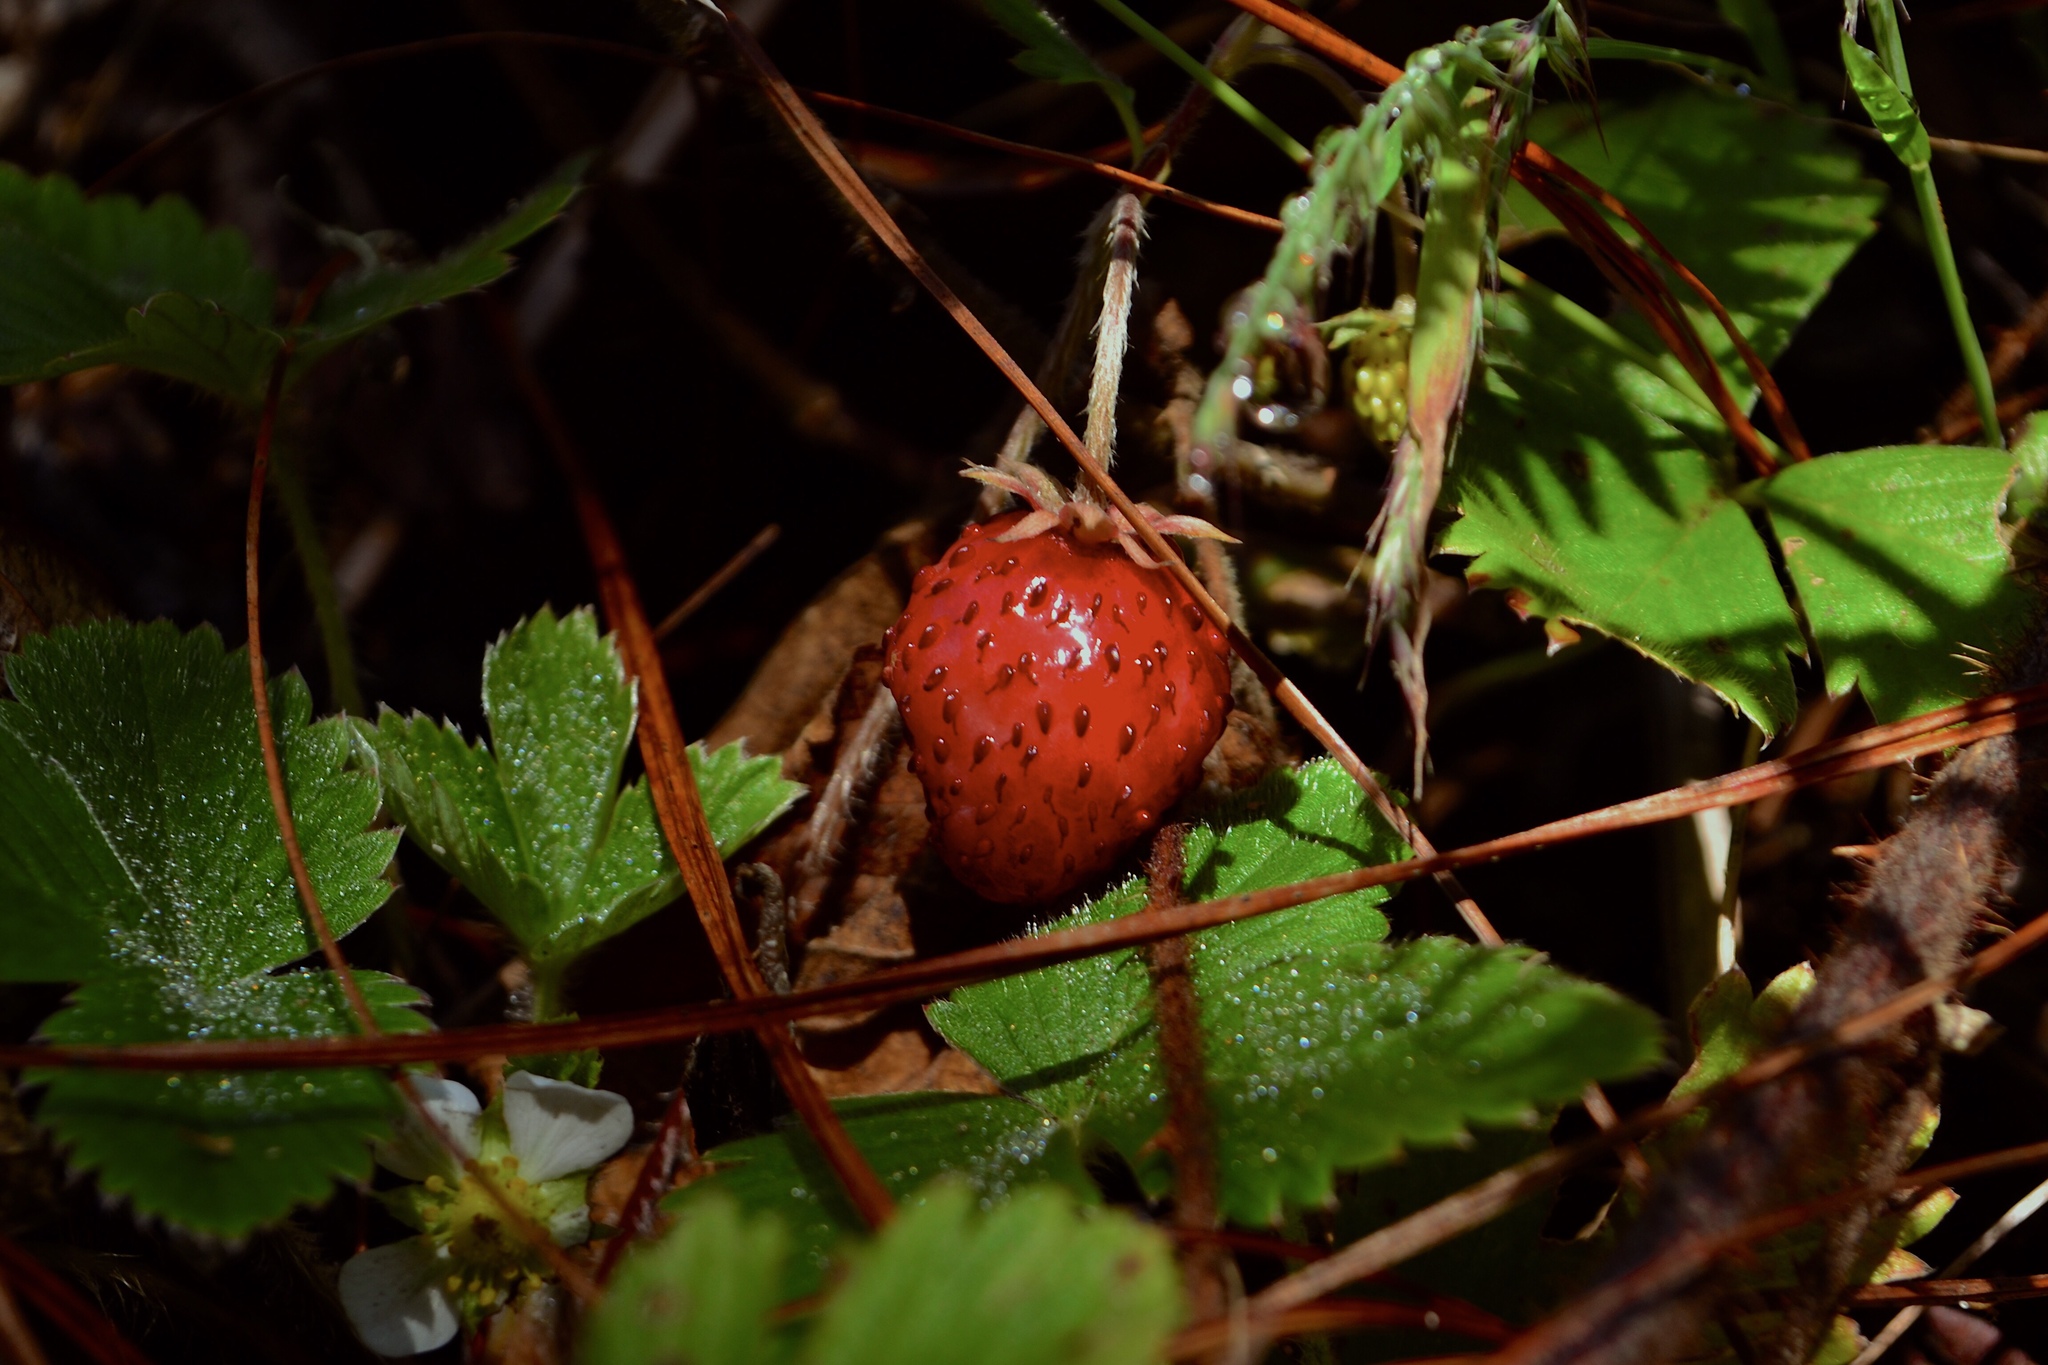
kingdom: Plantae
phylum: Tracheophyta
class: Magnoliopsida
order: Rosales
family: Rosaceae
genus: Fragaria
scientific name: Fragaria vesca
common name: Wild strawberry
